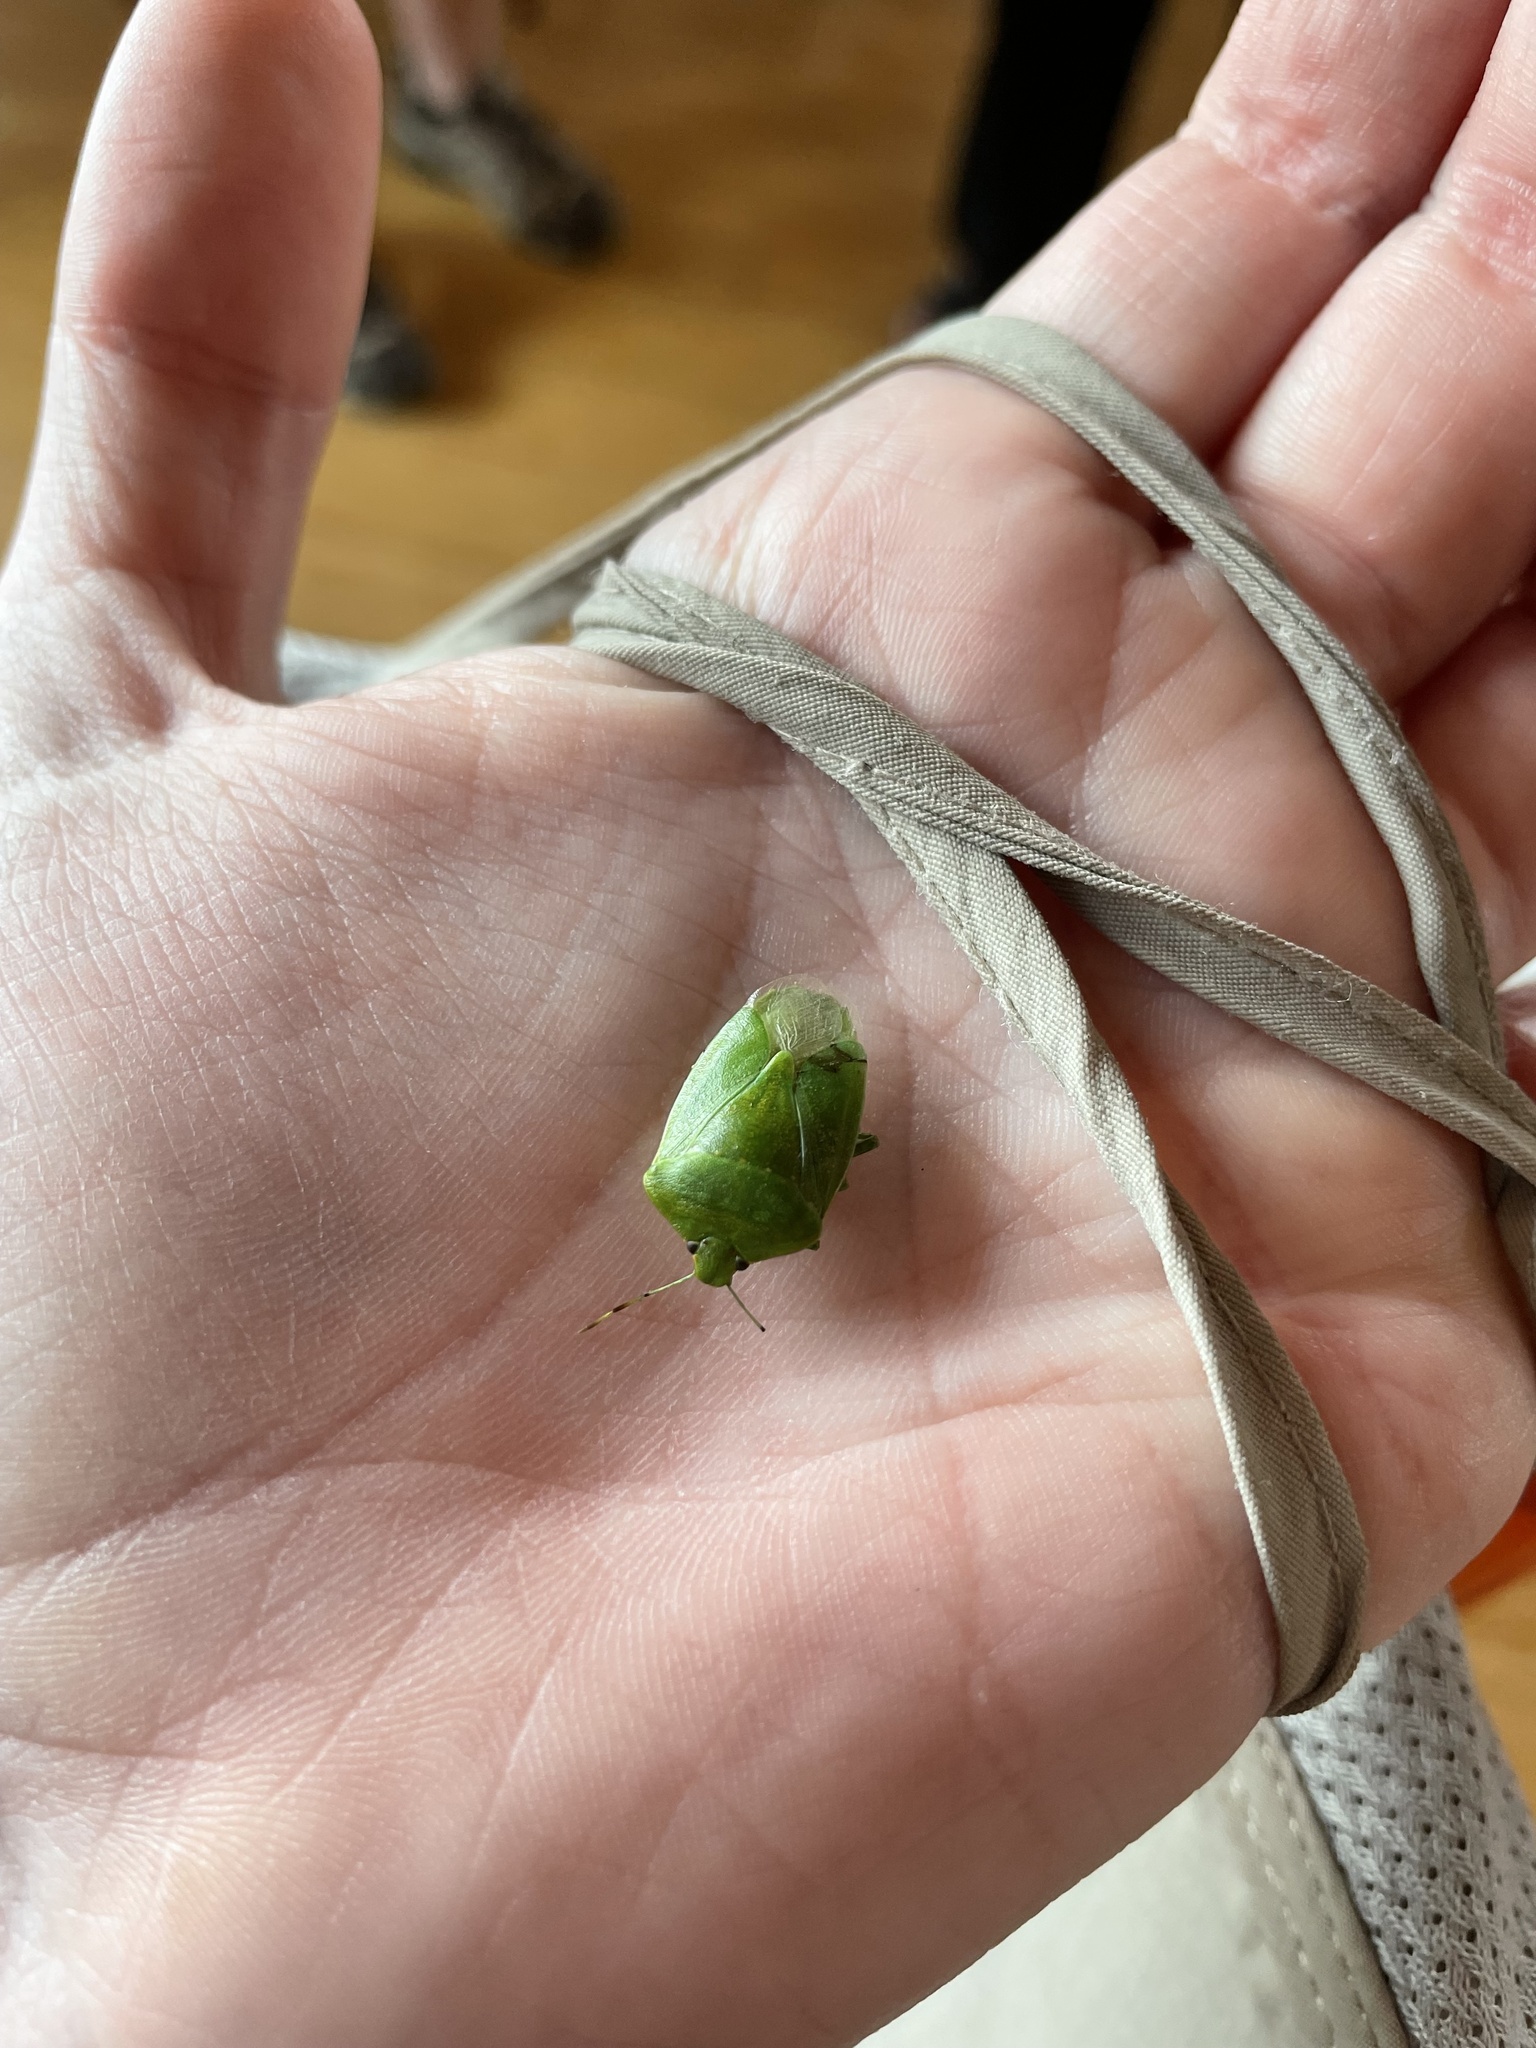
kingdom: Animalia
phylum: Arthropoda
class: Insecta
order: Hemiptera
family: Pentatomidae
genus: Chinavia
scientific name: Chinavia hilaris
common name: Green stink bug
